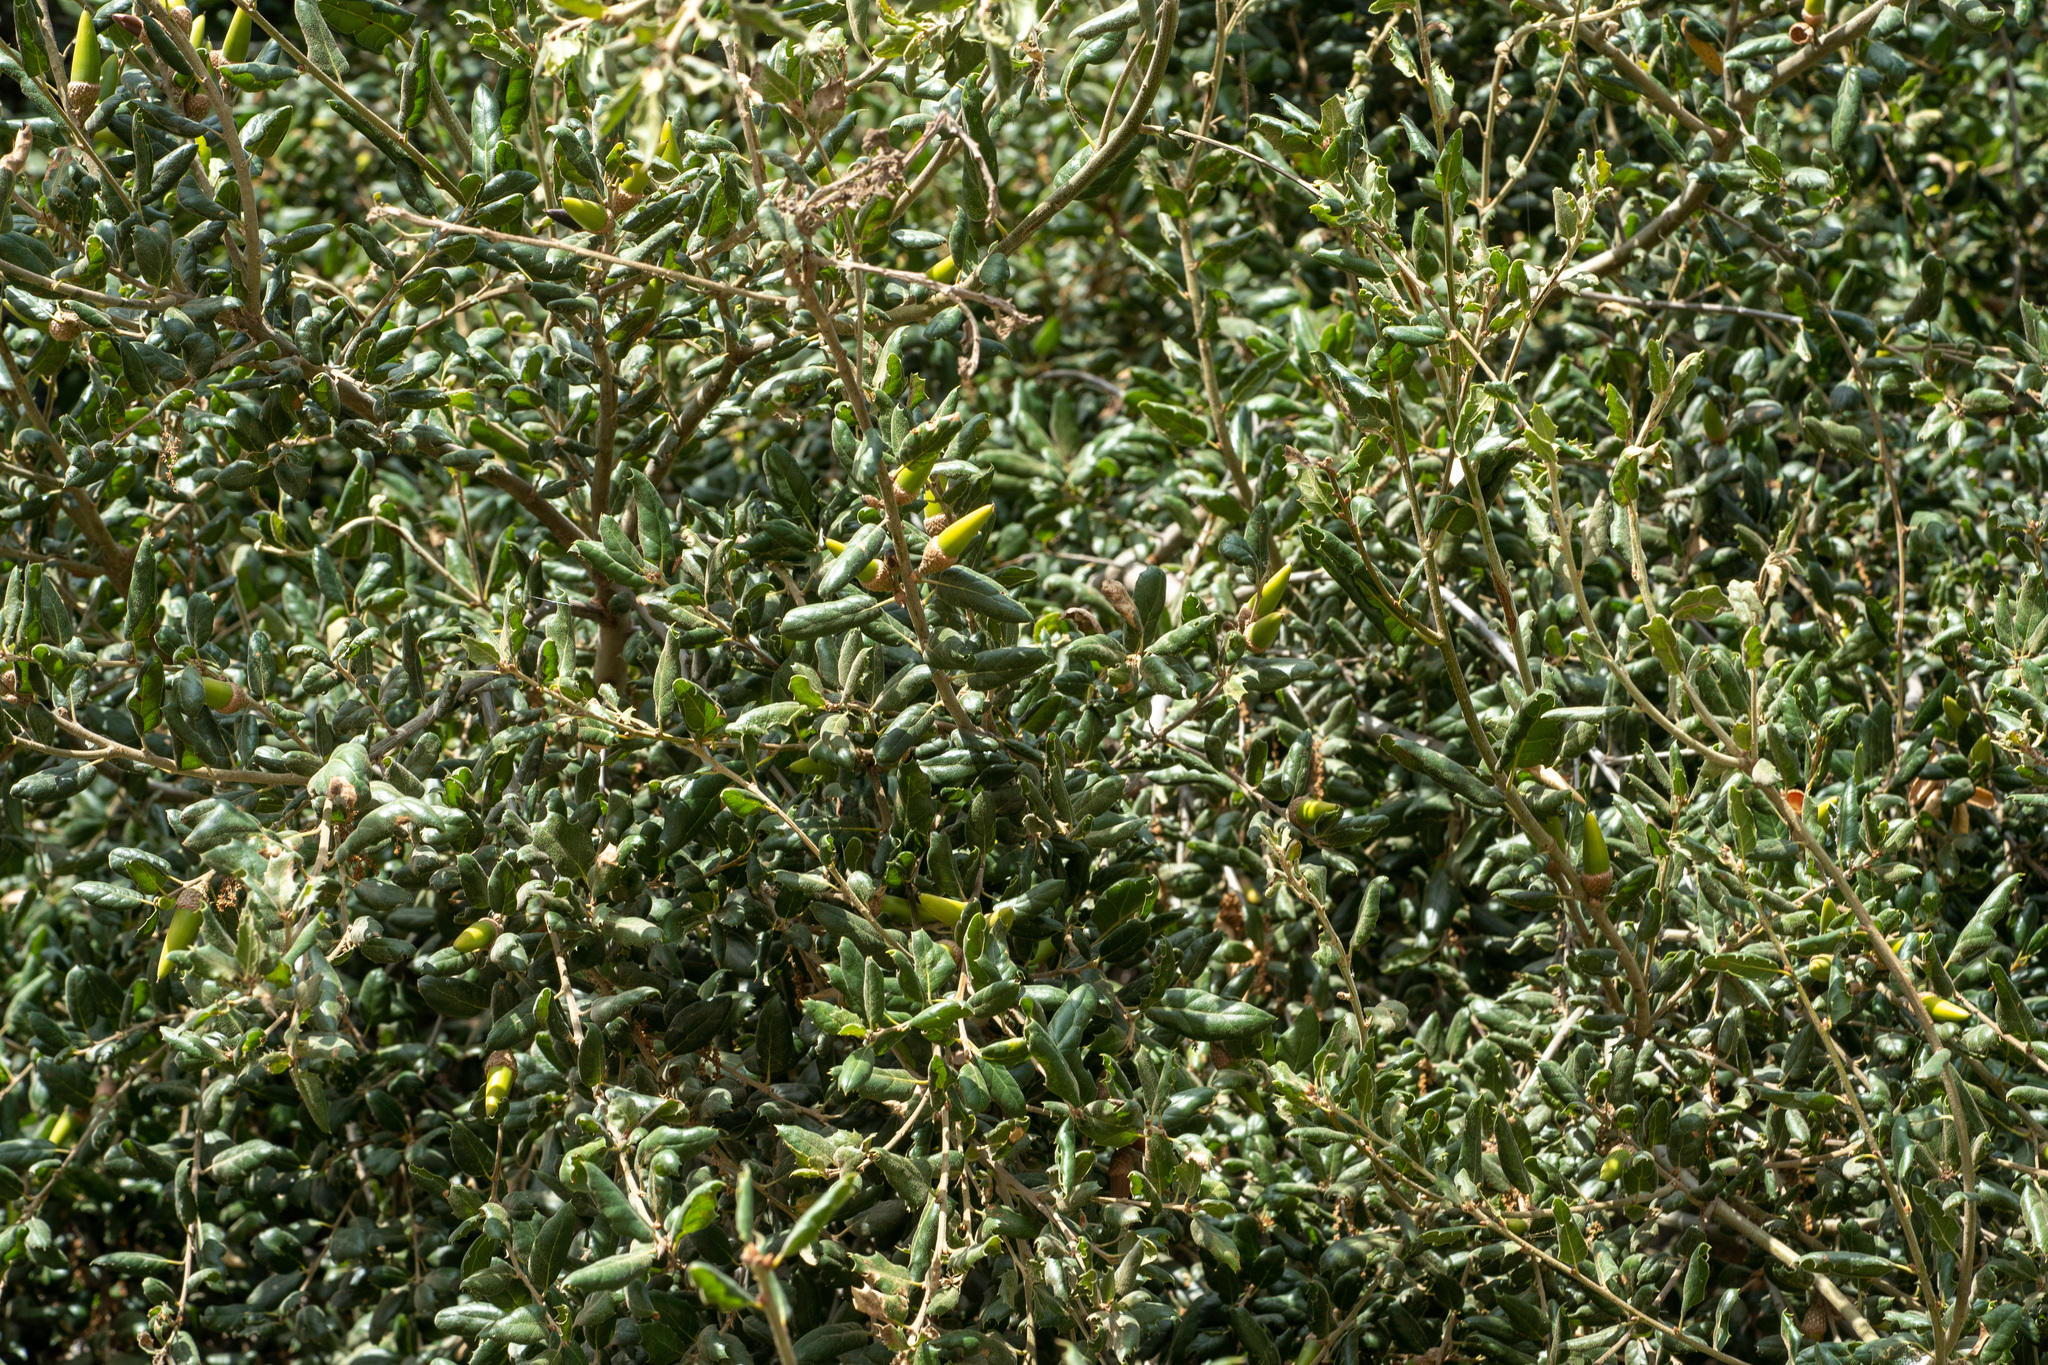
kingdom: Plantae
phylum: Tracheophyta
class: Magnoliopsida
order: Fagales
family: Fagaceae
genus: Quercus
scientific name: Quercus agrifolia
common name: California live oak
